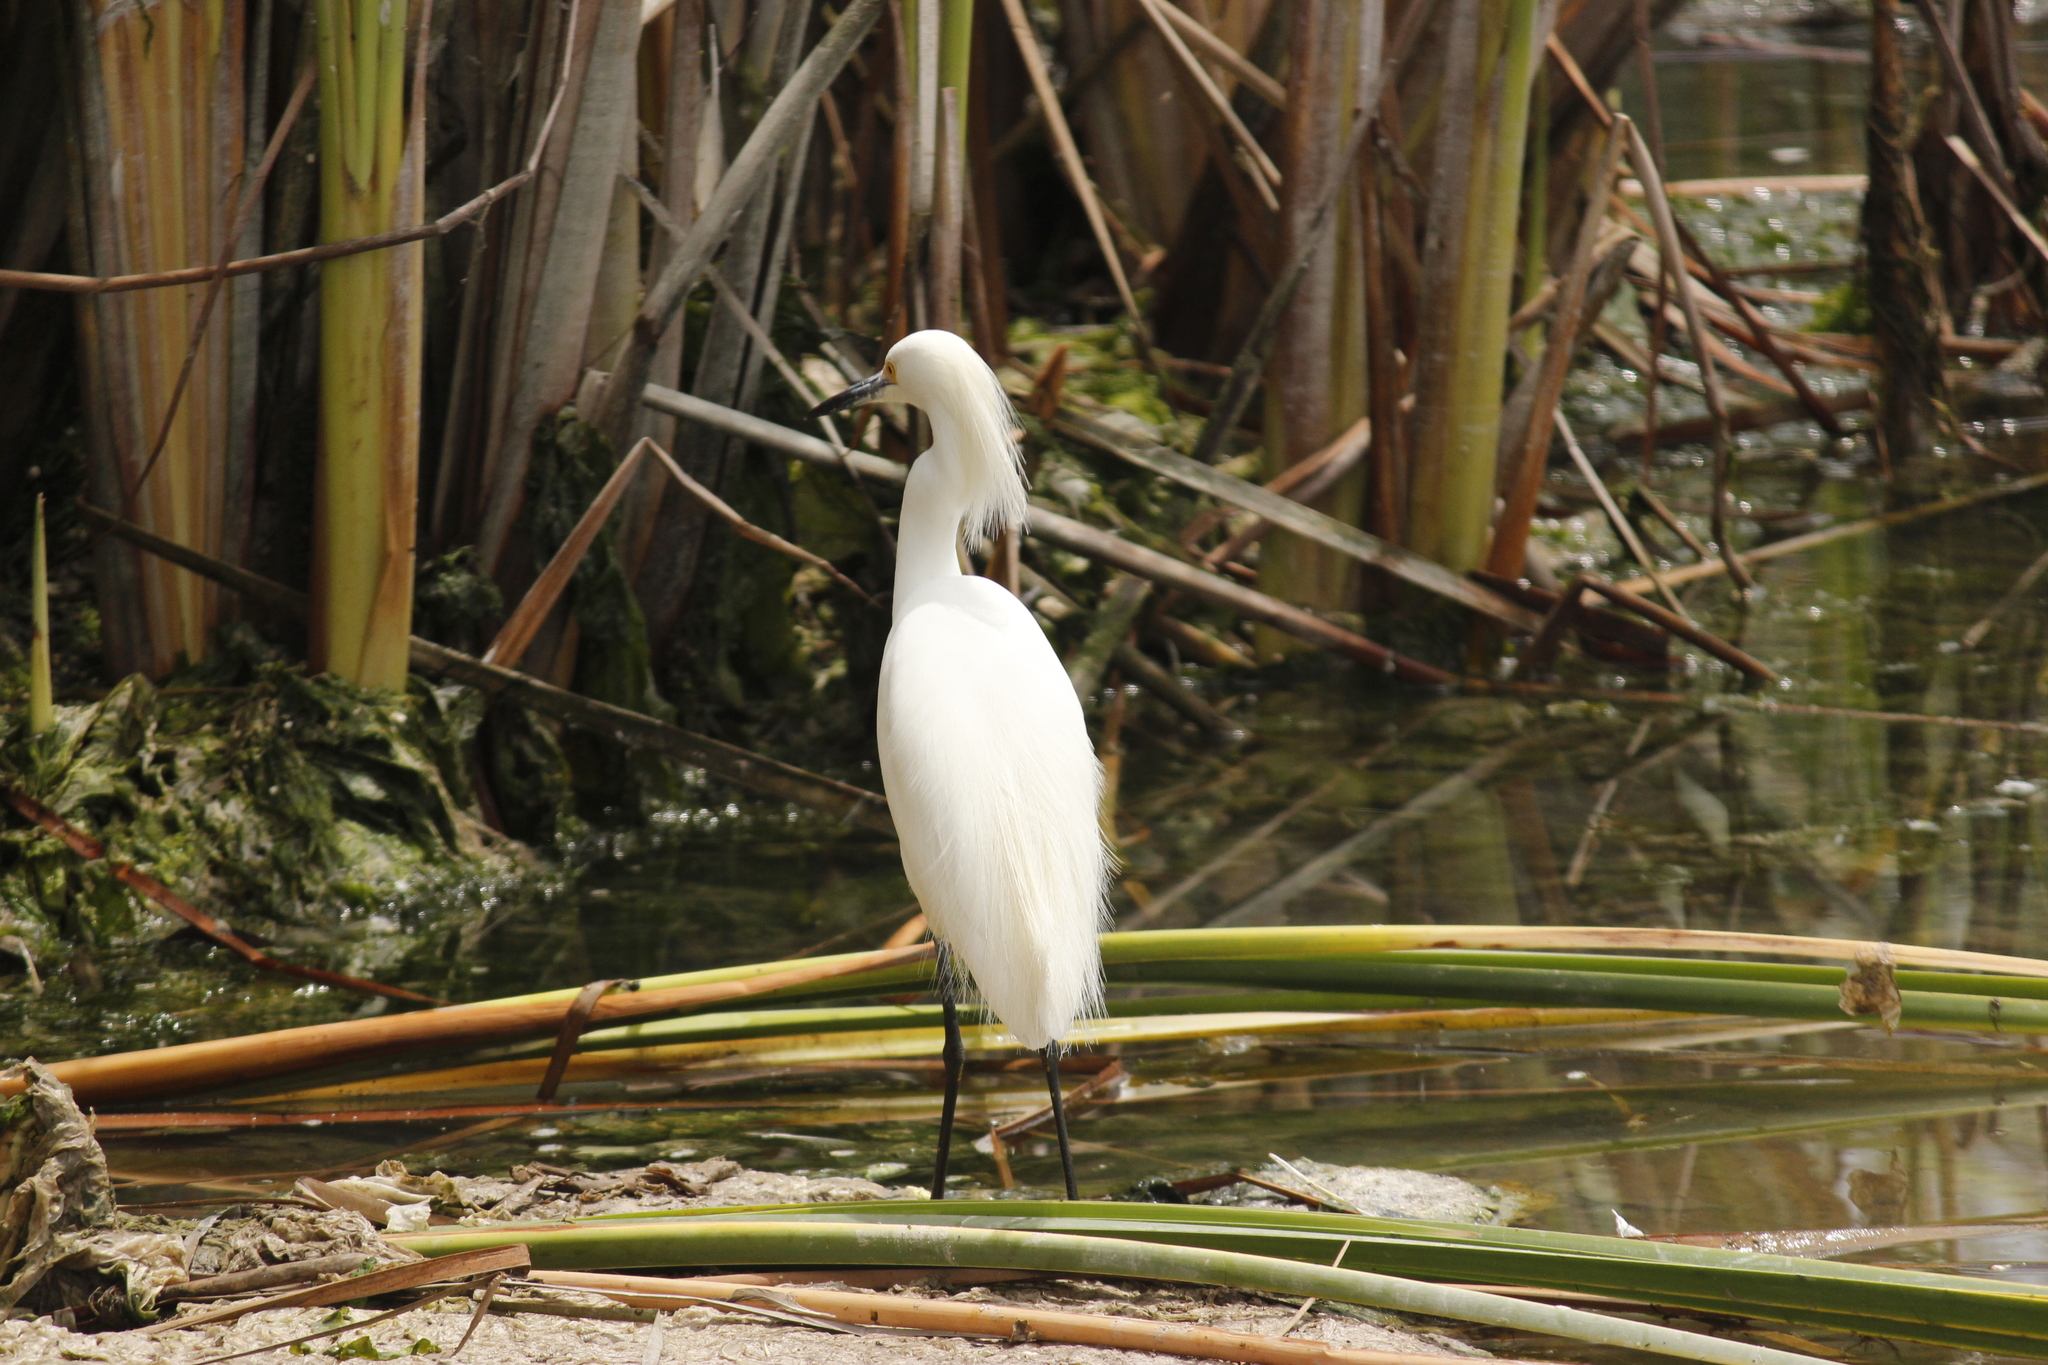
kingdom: Animalia
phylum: Chordata
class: Aves
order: Pelecaniformes
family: Ardeidae
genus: Egretta
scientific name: Egretta thula
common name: Snowy egret
